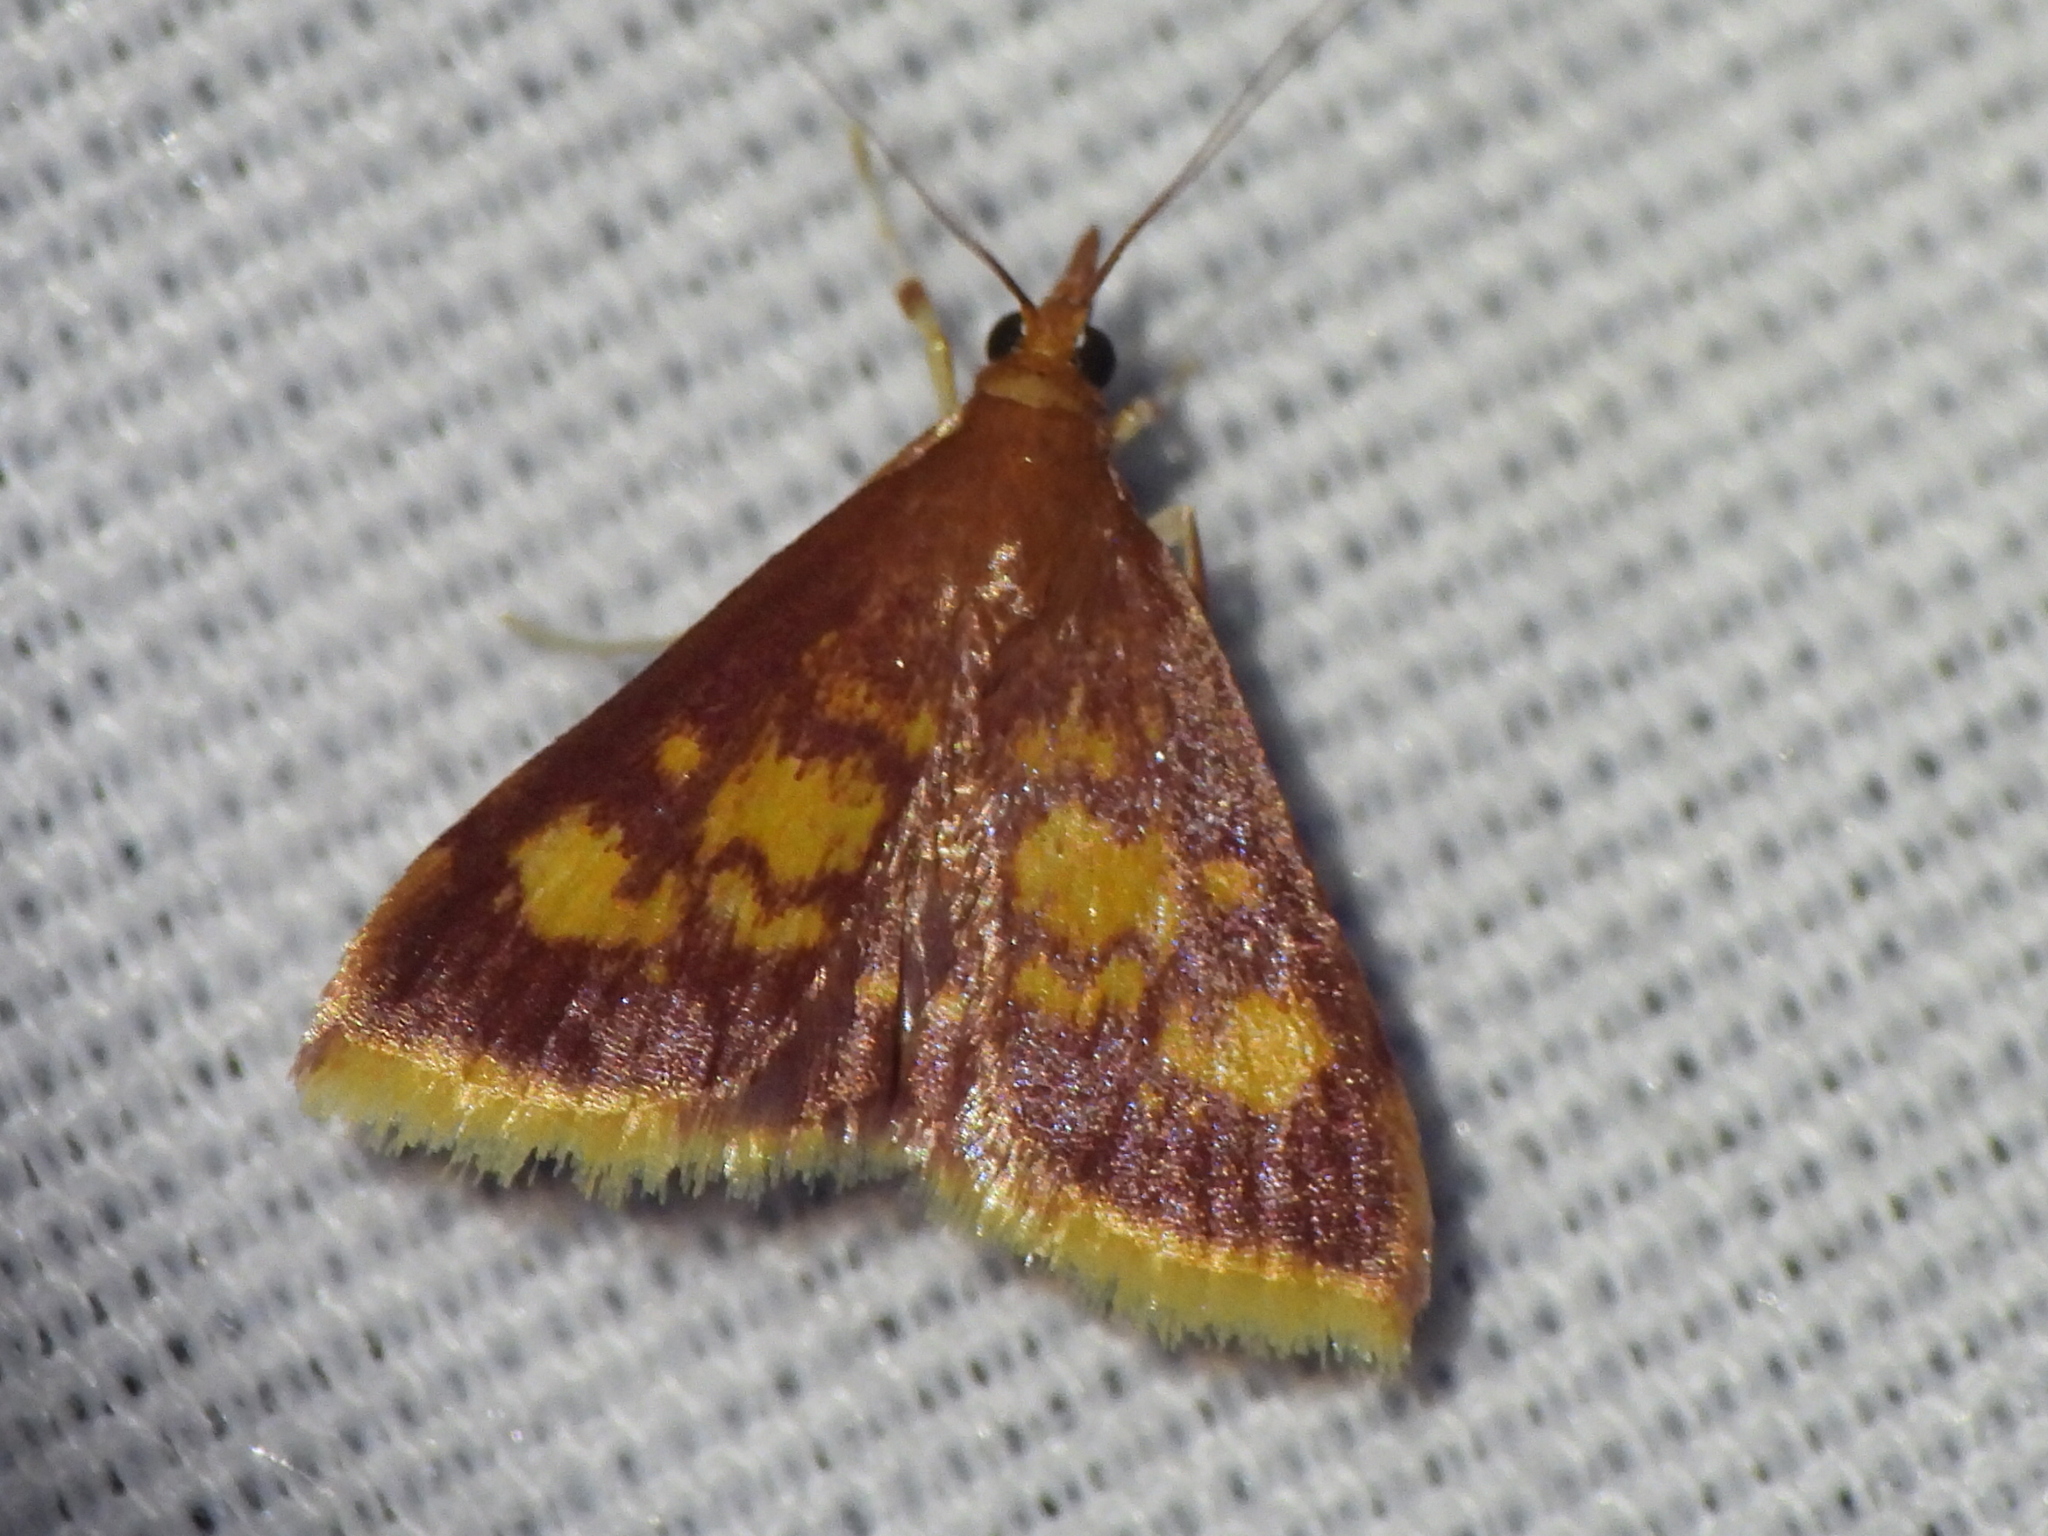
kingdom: Animalia
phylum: Arthropoda
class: Insecta
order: Lepidoptera
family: Crambidae
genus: Pyrausta
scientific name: Pyrausta acrionalis
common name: Mint-loving pyrausta moth
